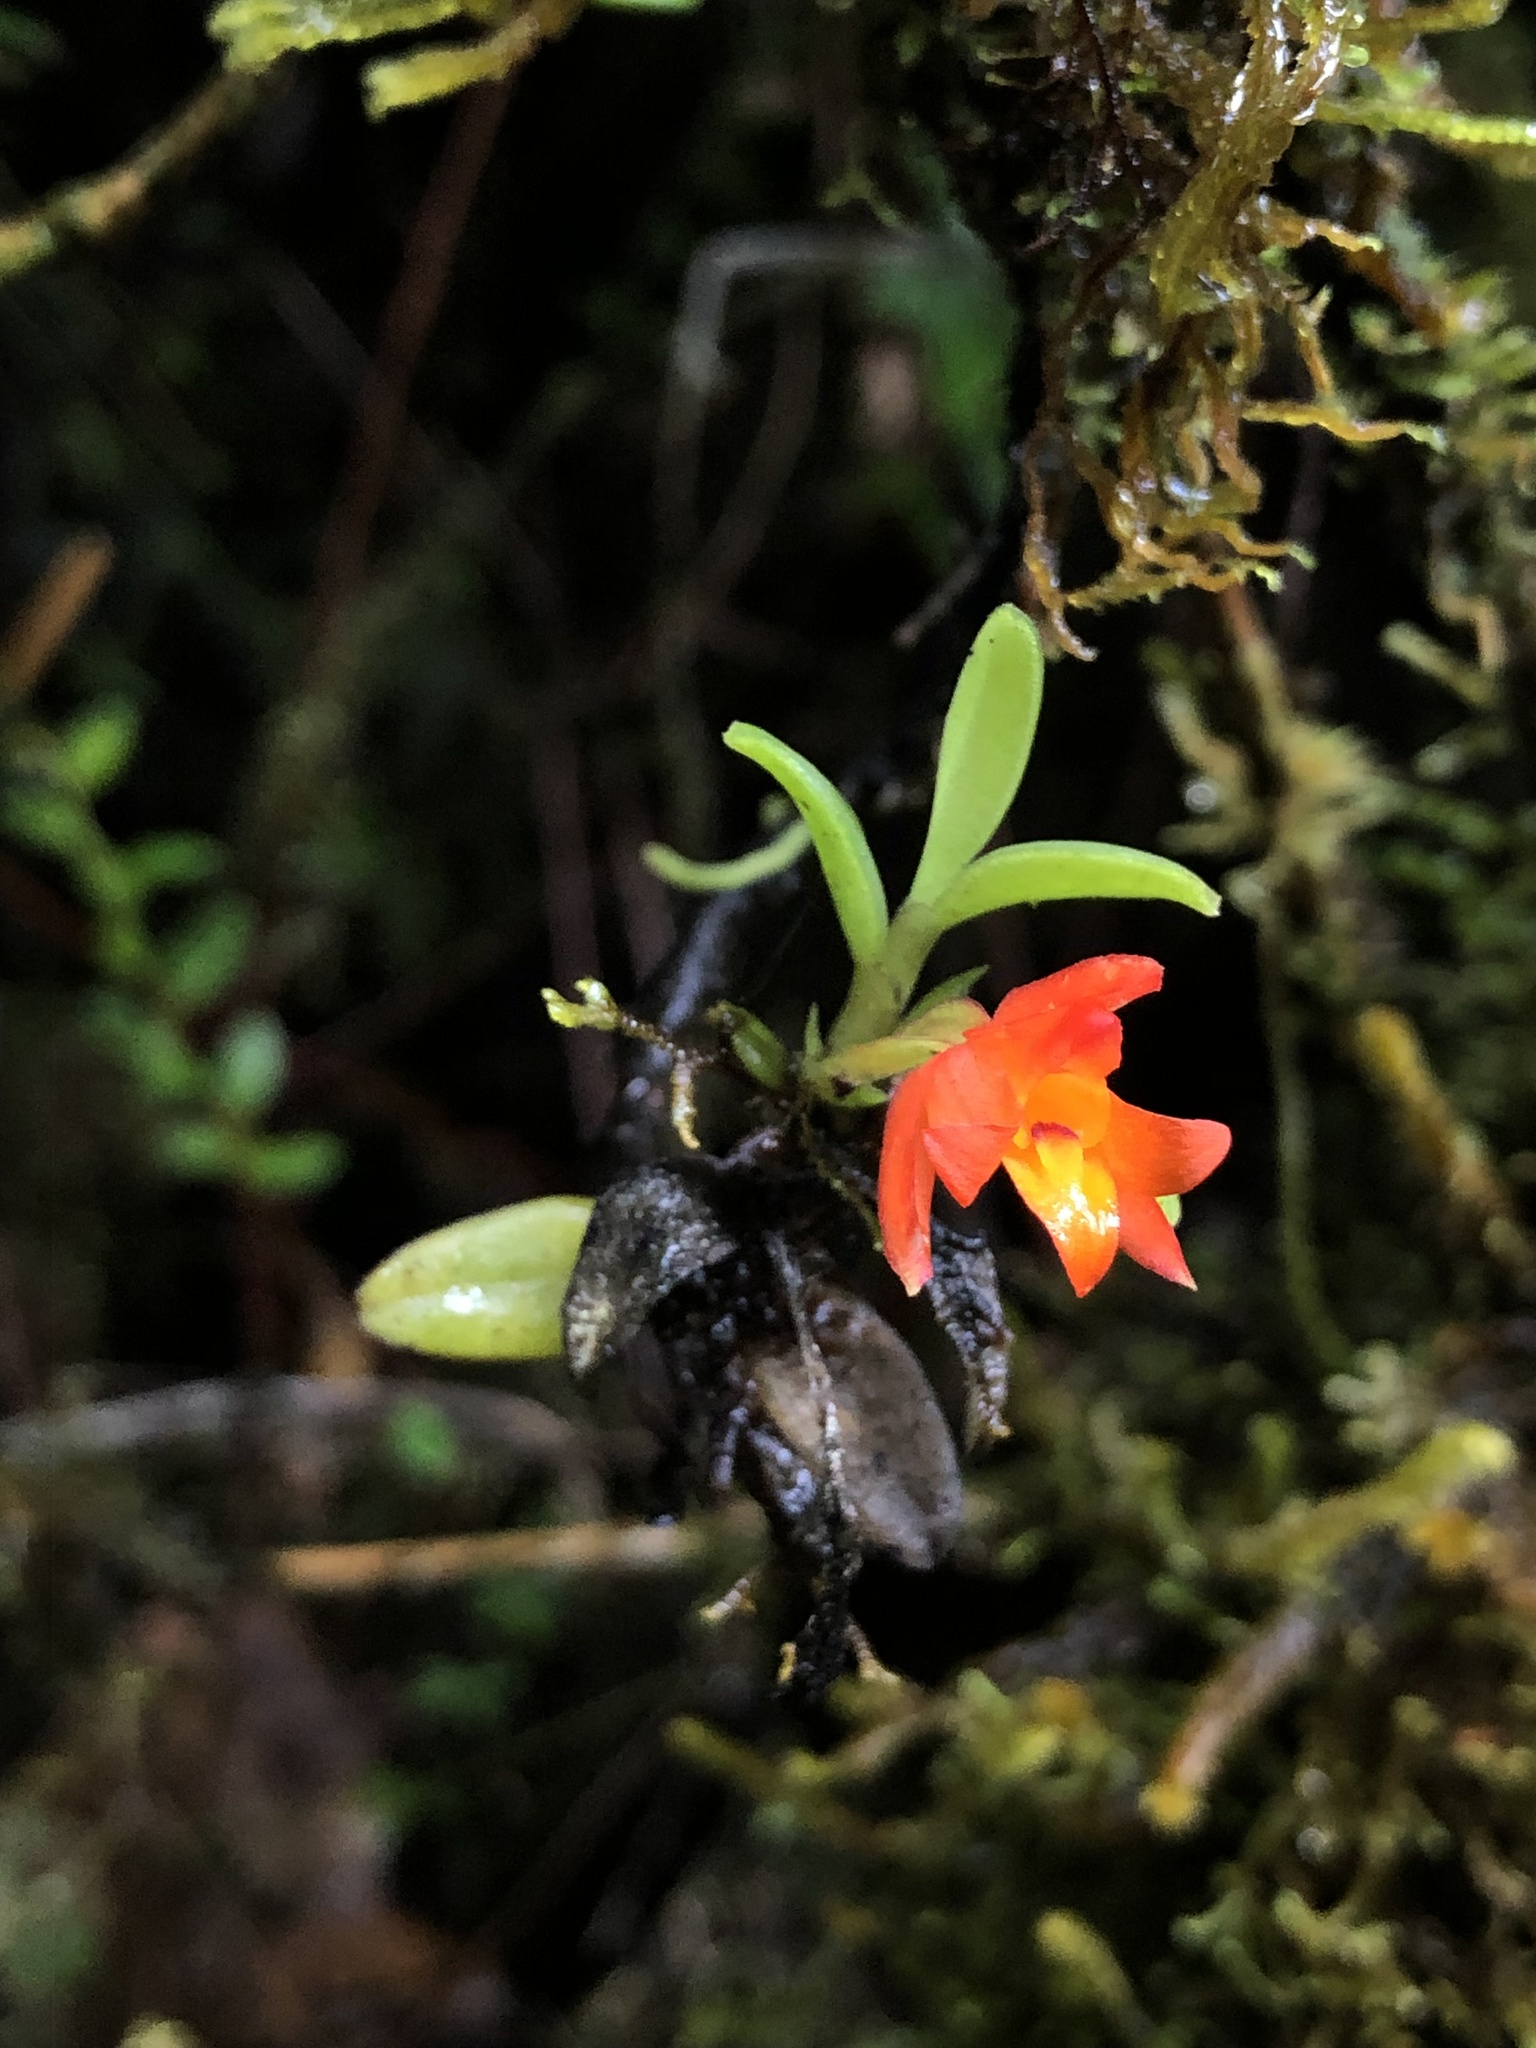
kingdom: Plantae
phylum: Tracheophyta
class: Liliopsida
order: Asparagales
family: Orchidaceae
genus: Fernandezia
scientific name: Fernandezia sanguinea
